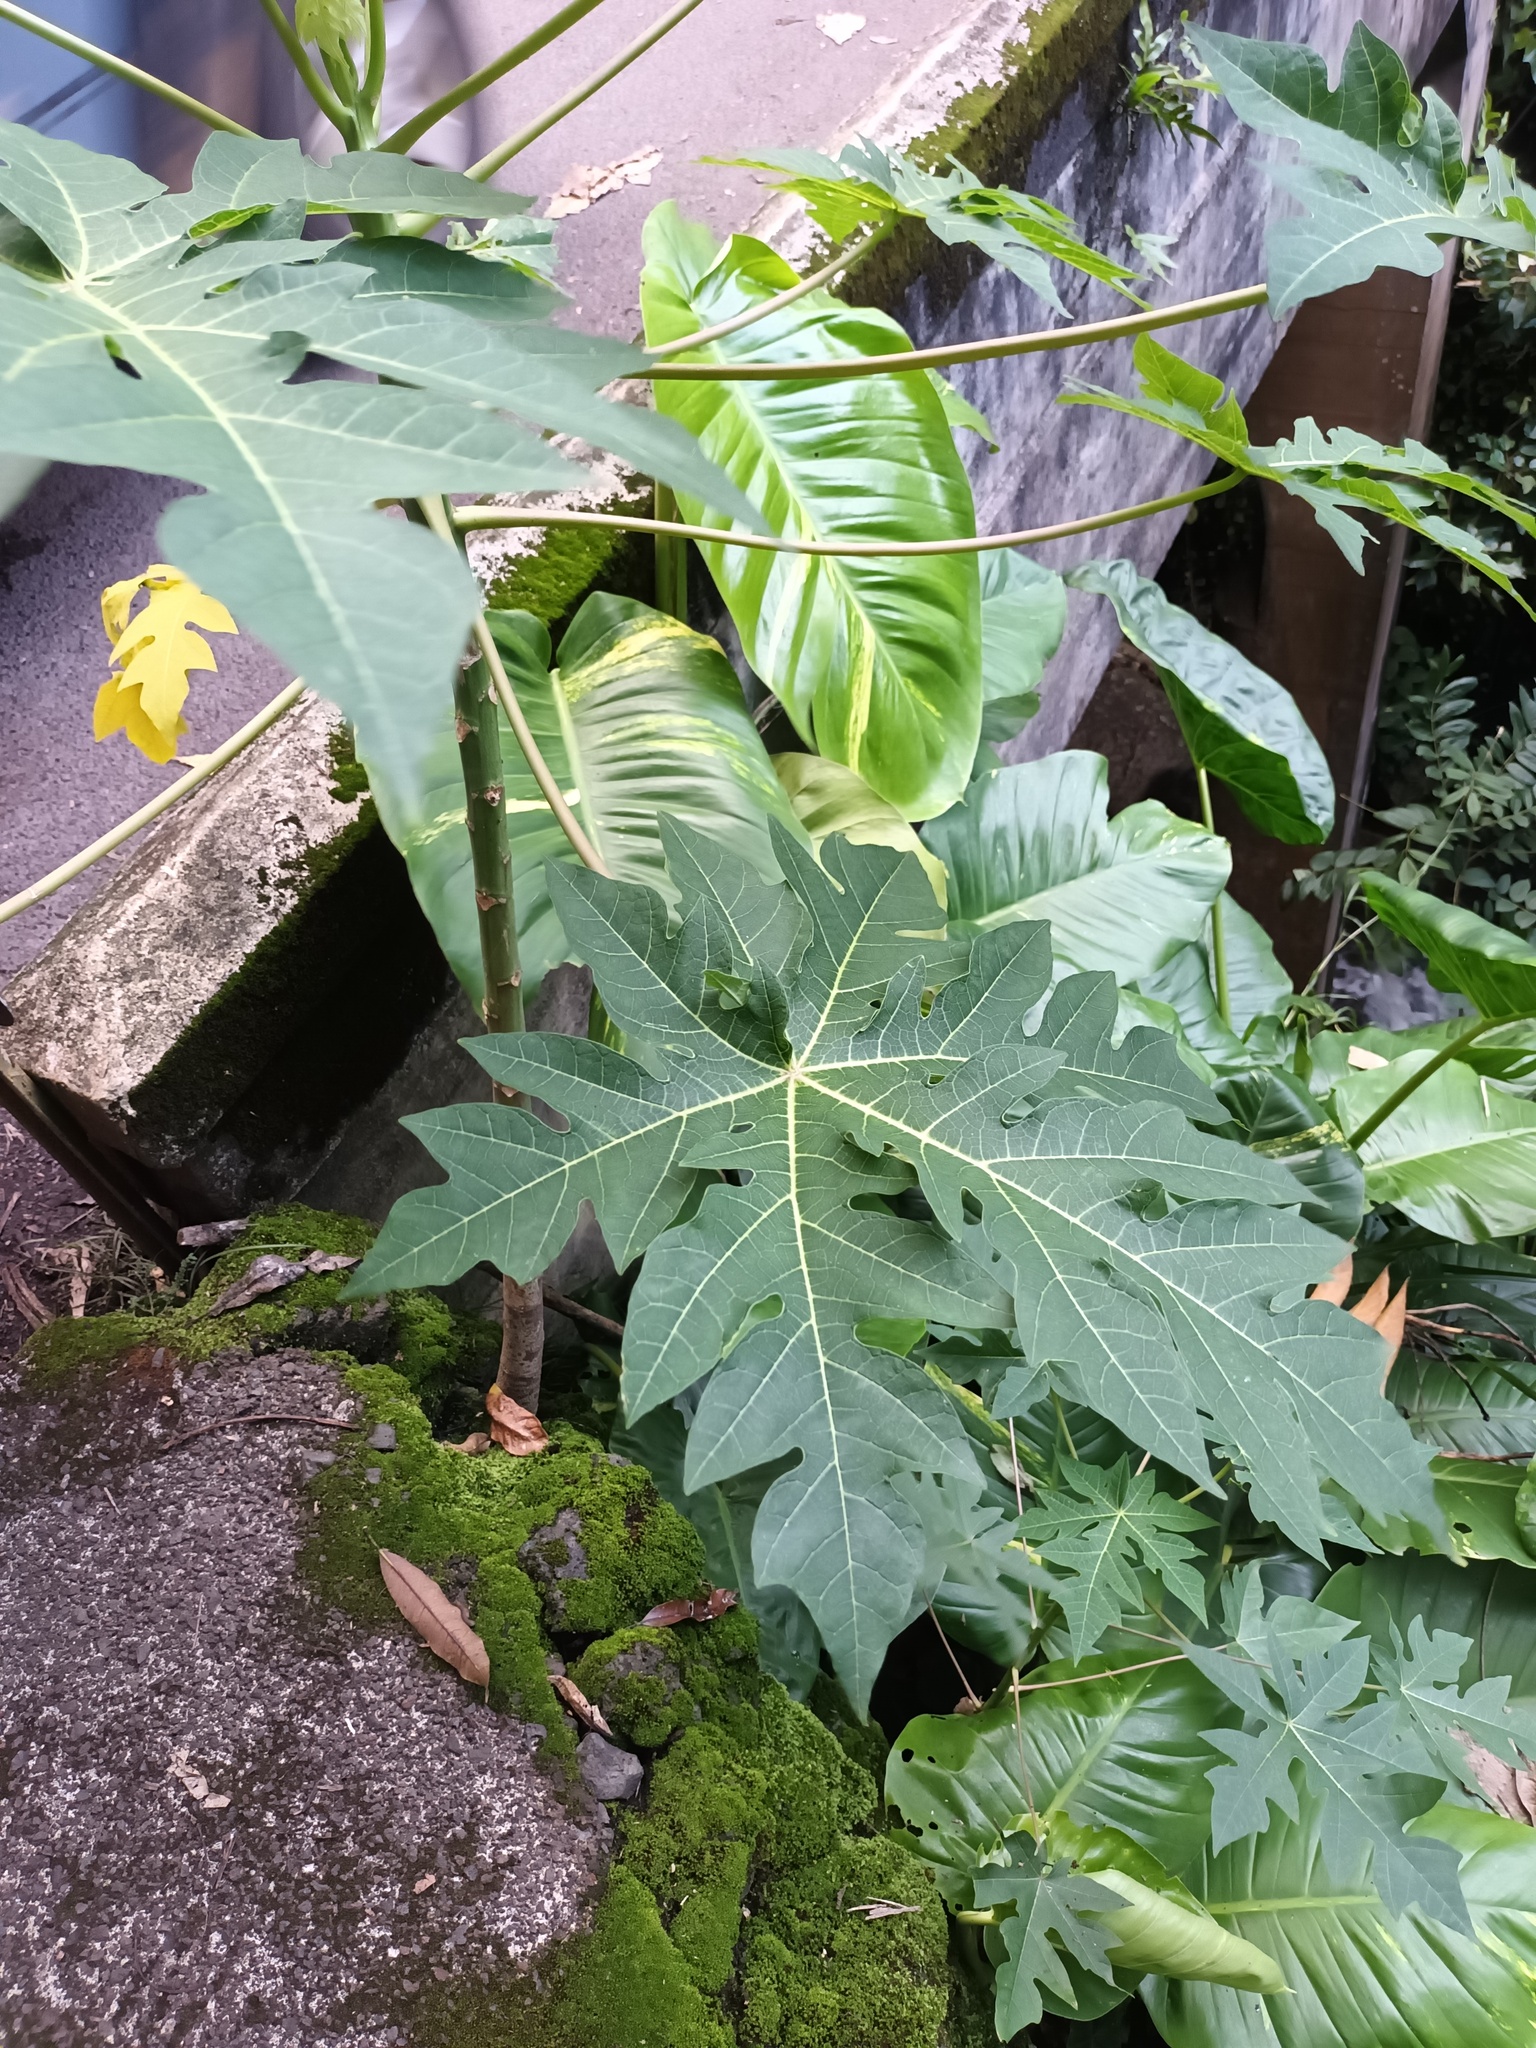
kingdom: Plantae
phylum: Tracheophyta
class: Magnoliopsida
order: Brassicales
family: Caricaceae
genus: Carica
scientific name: Carica papaya
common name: Papaya
